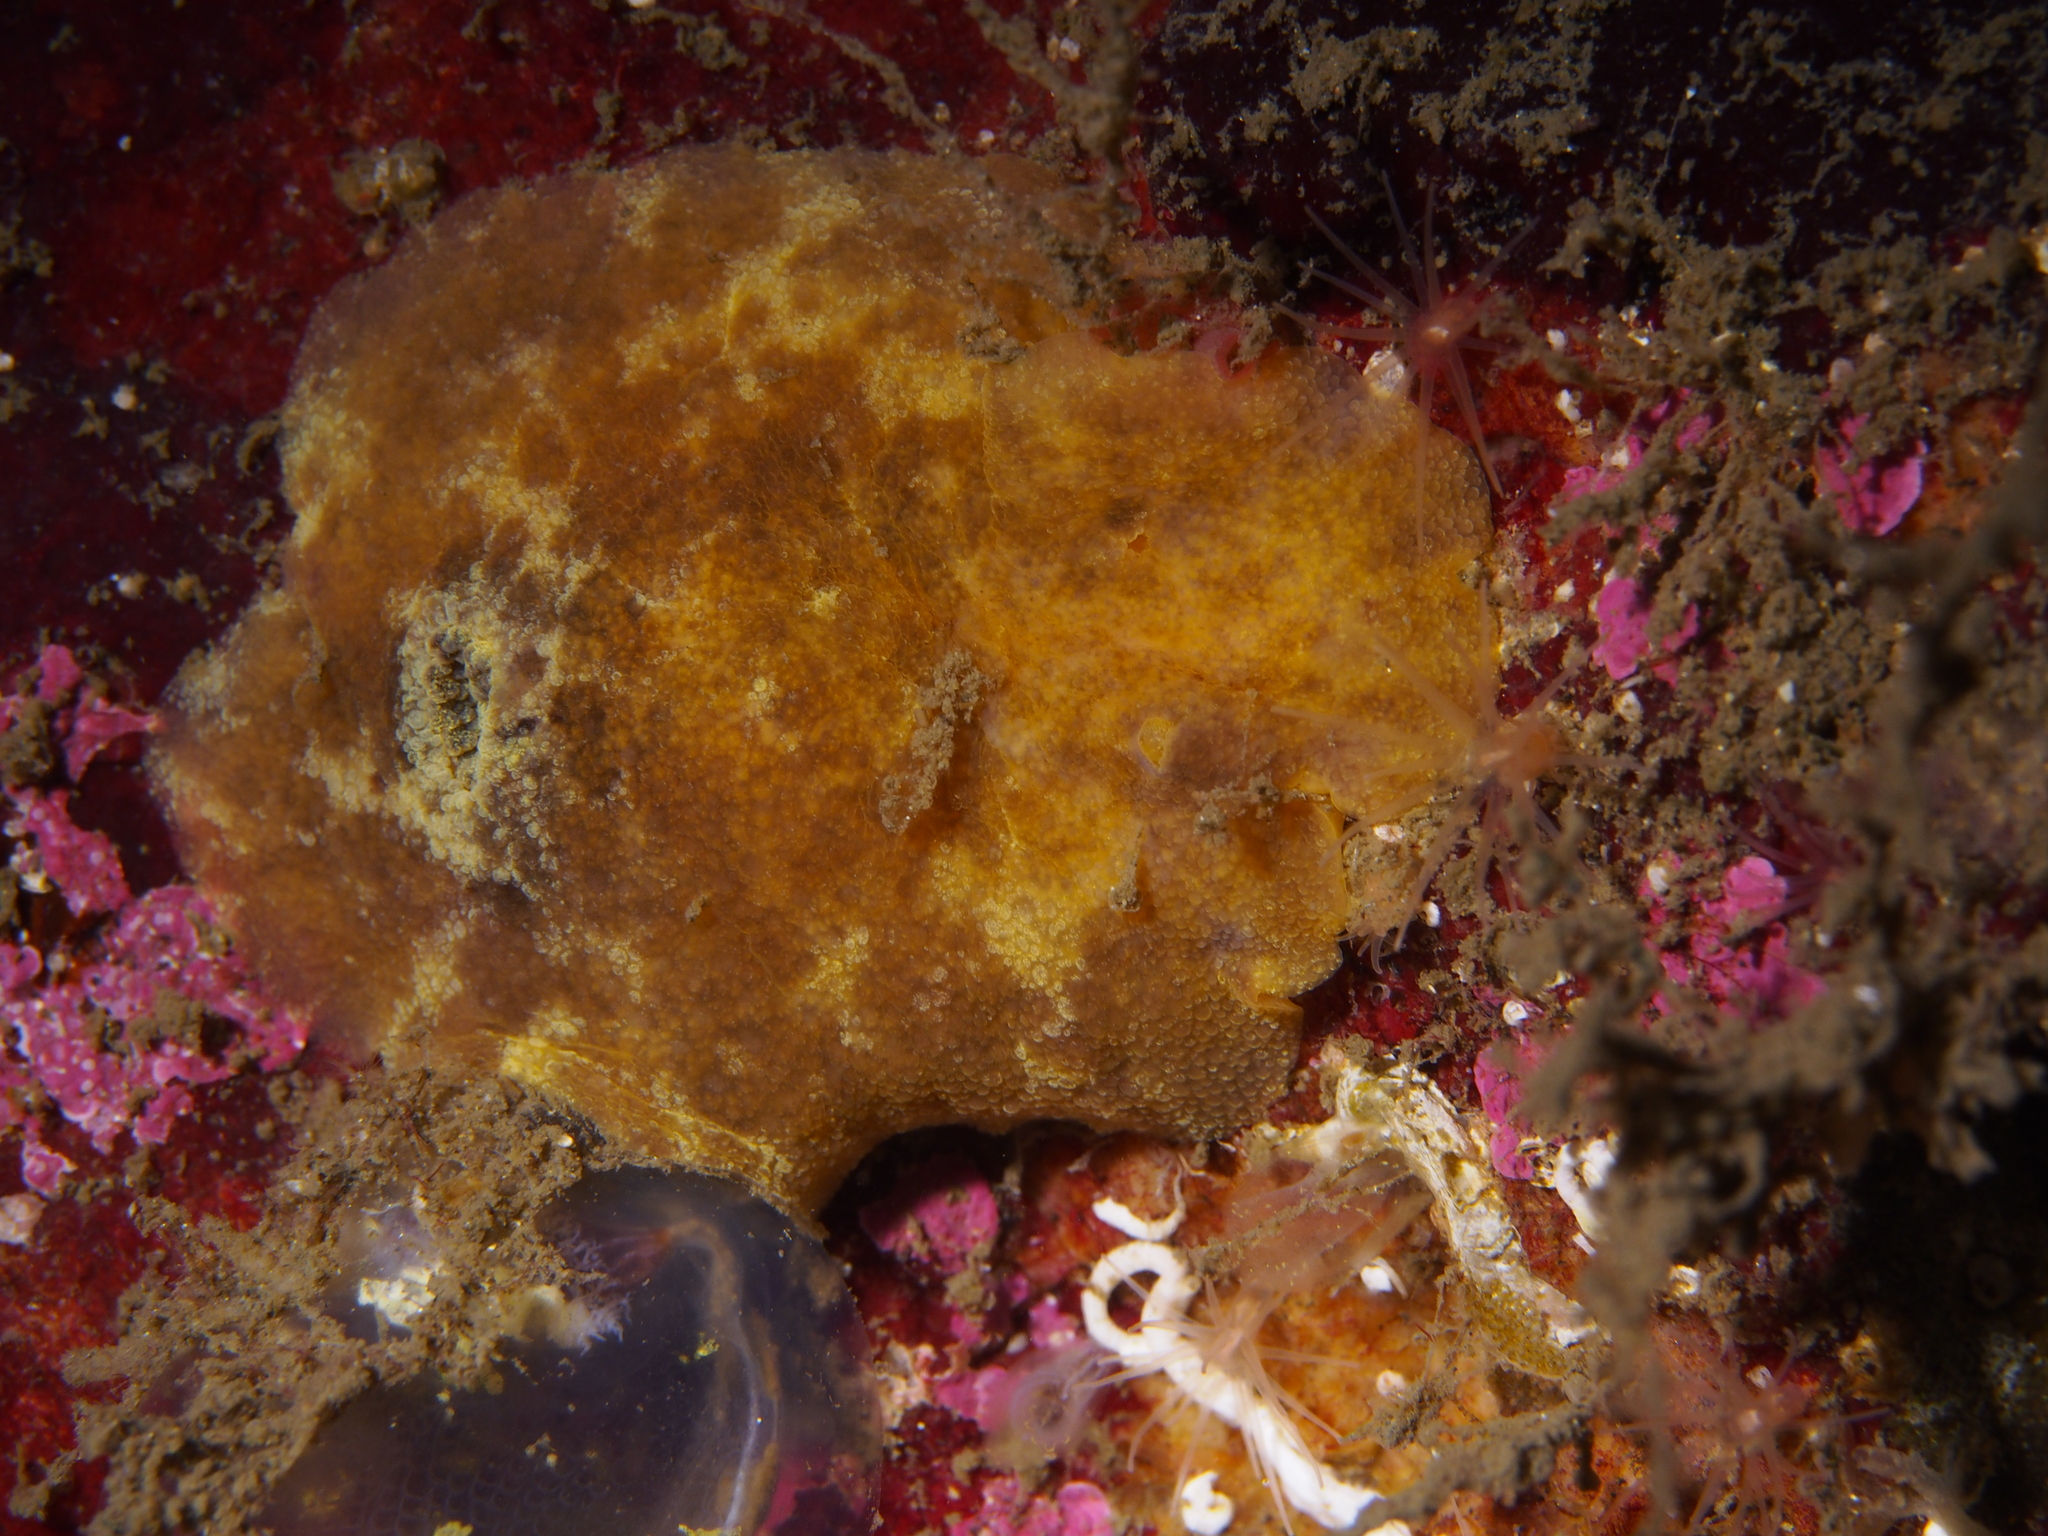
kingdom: Animalia
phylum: Mollusca
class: Gastropoda
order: Nudibranchia
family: Dorididae
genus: Doris
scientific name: Doris pseudoargus
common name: Sea lemon
